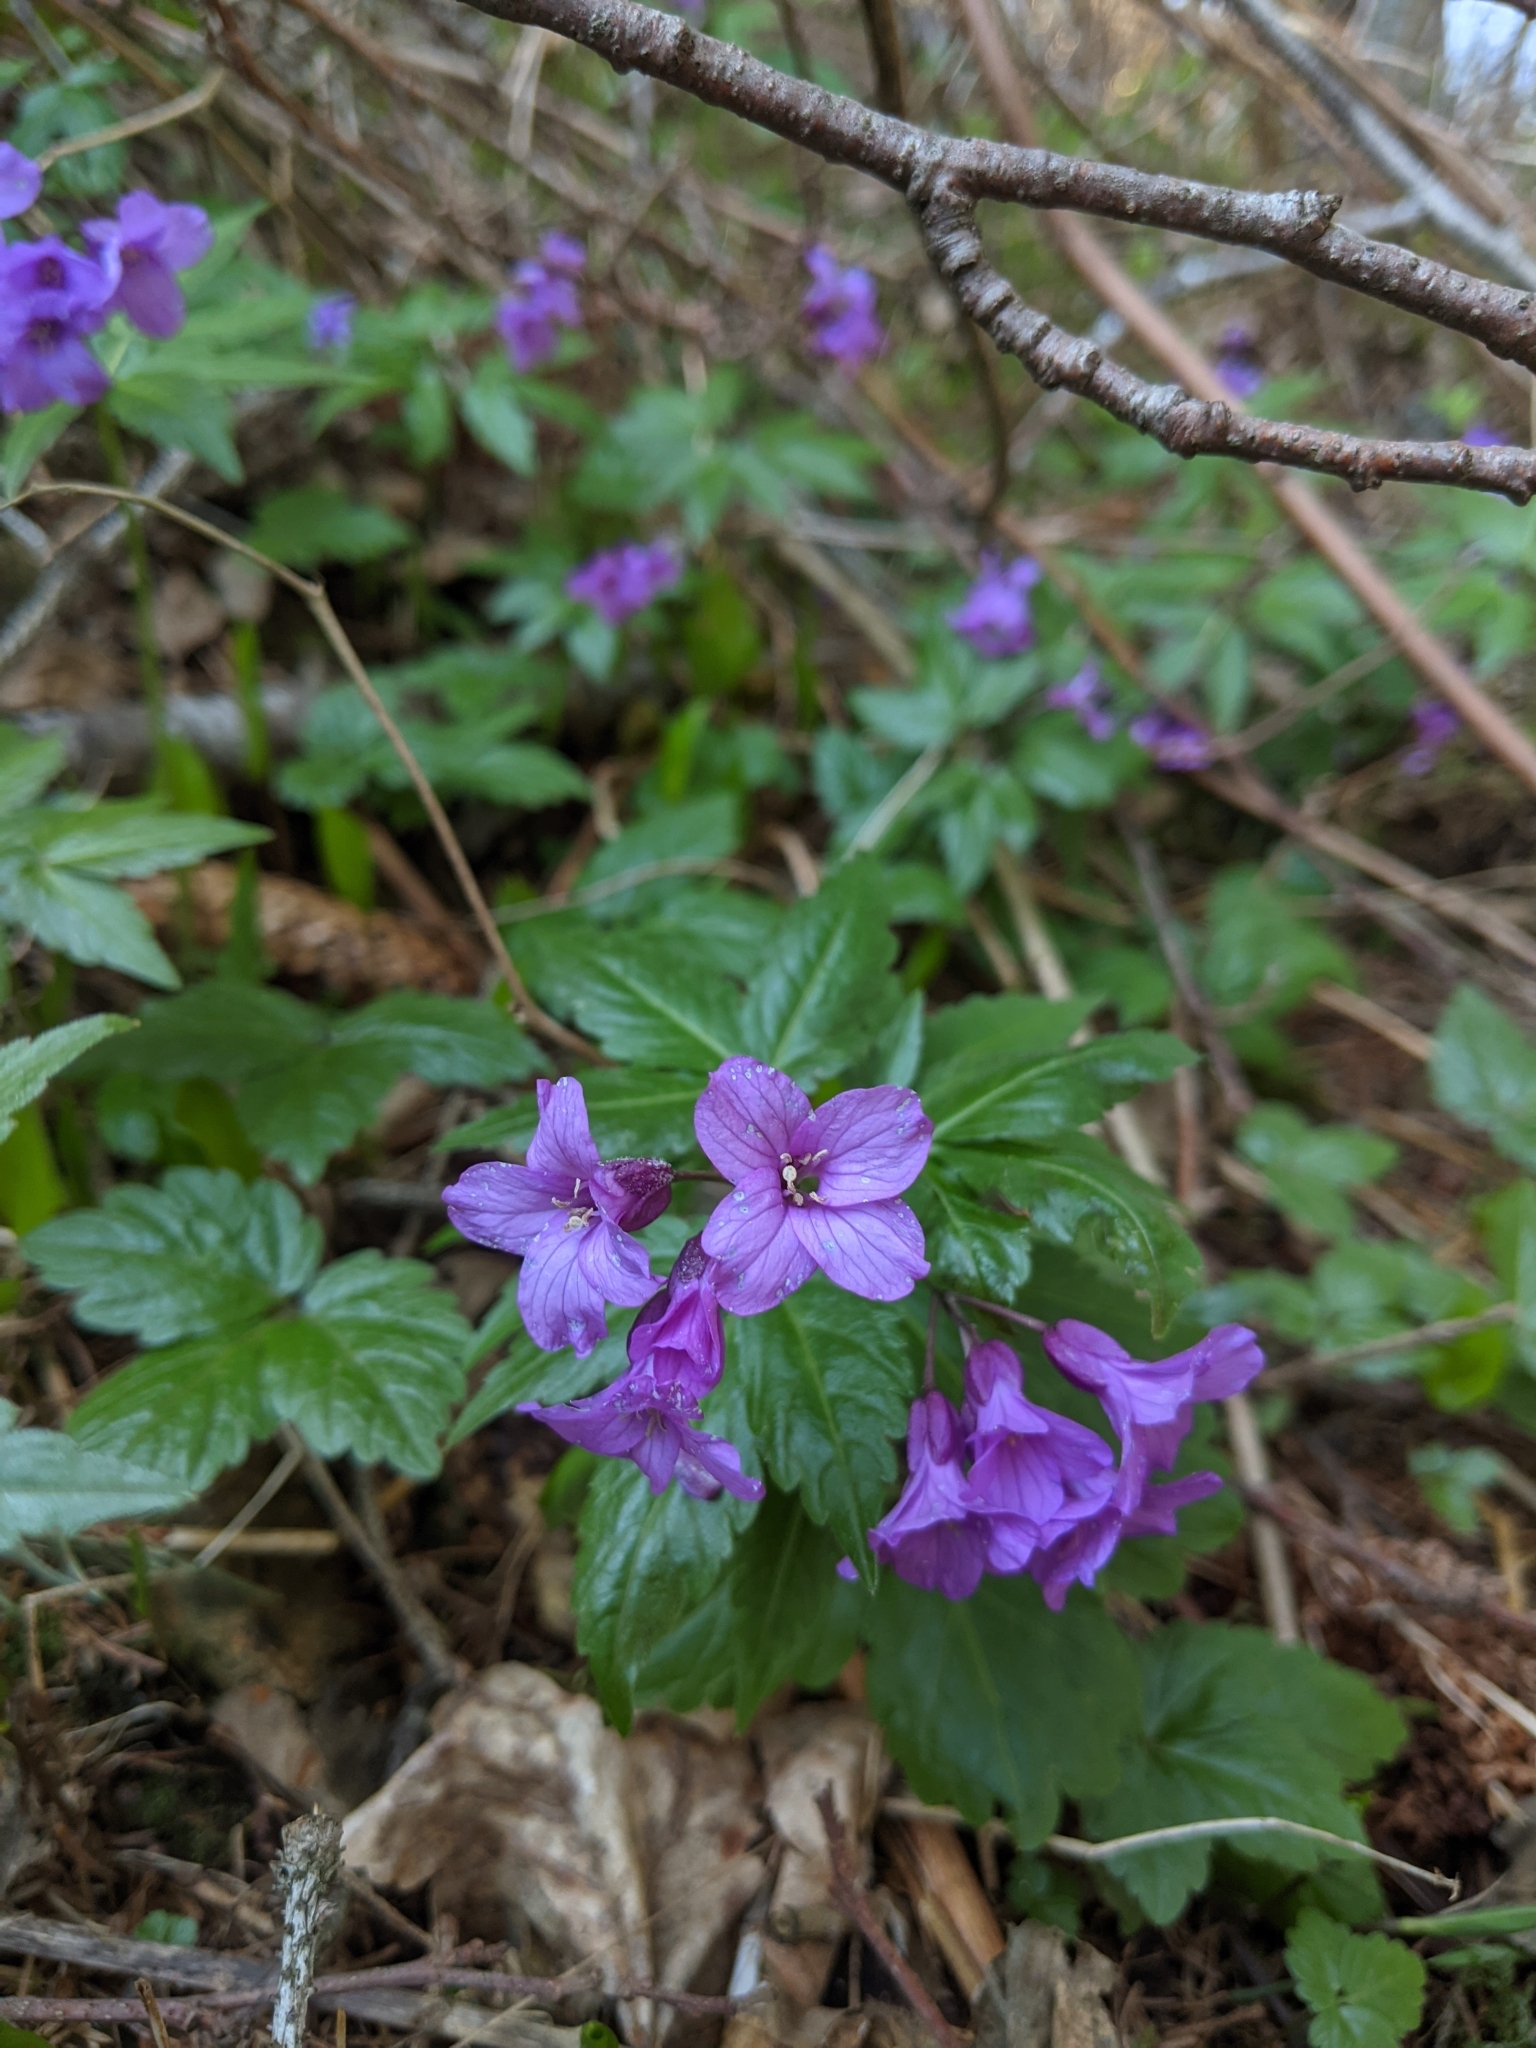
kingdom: Plantae
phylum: Tracheophyta
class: Magnoliopsida
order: Brassicales
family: Brassicaceae
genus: Cardamine
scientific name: Cardamine glanduligera
